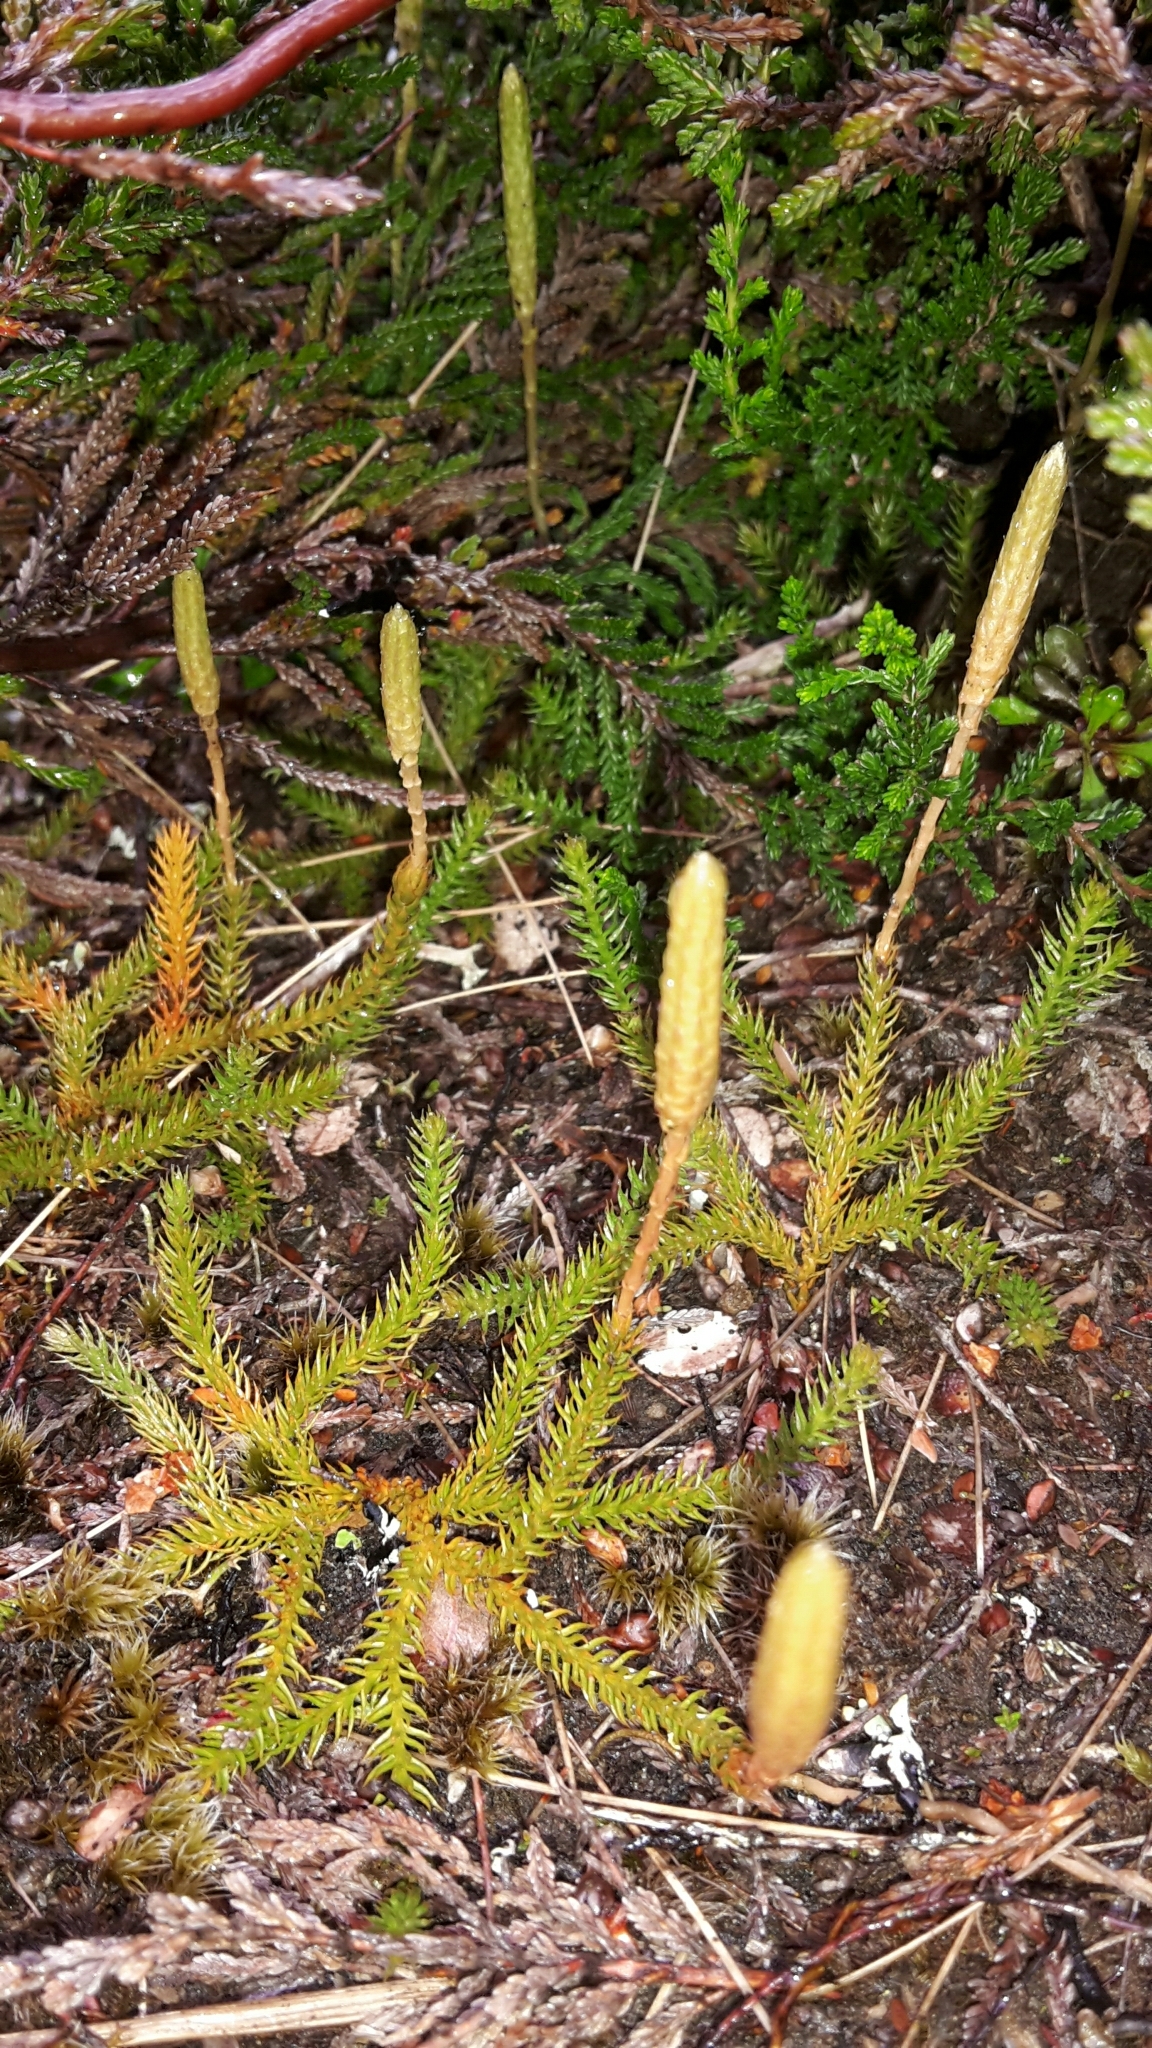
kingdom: Plantae
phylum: Tracheophyta
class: Lycopodiopsida
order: Lycopodiales
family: Lycopodiaceae
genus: Austrolycopodium
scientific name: Austrolycopodium fastigiatum
